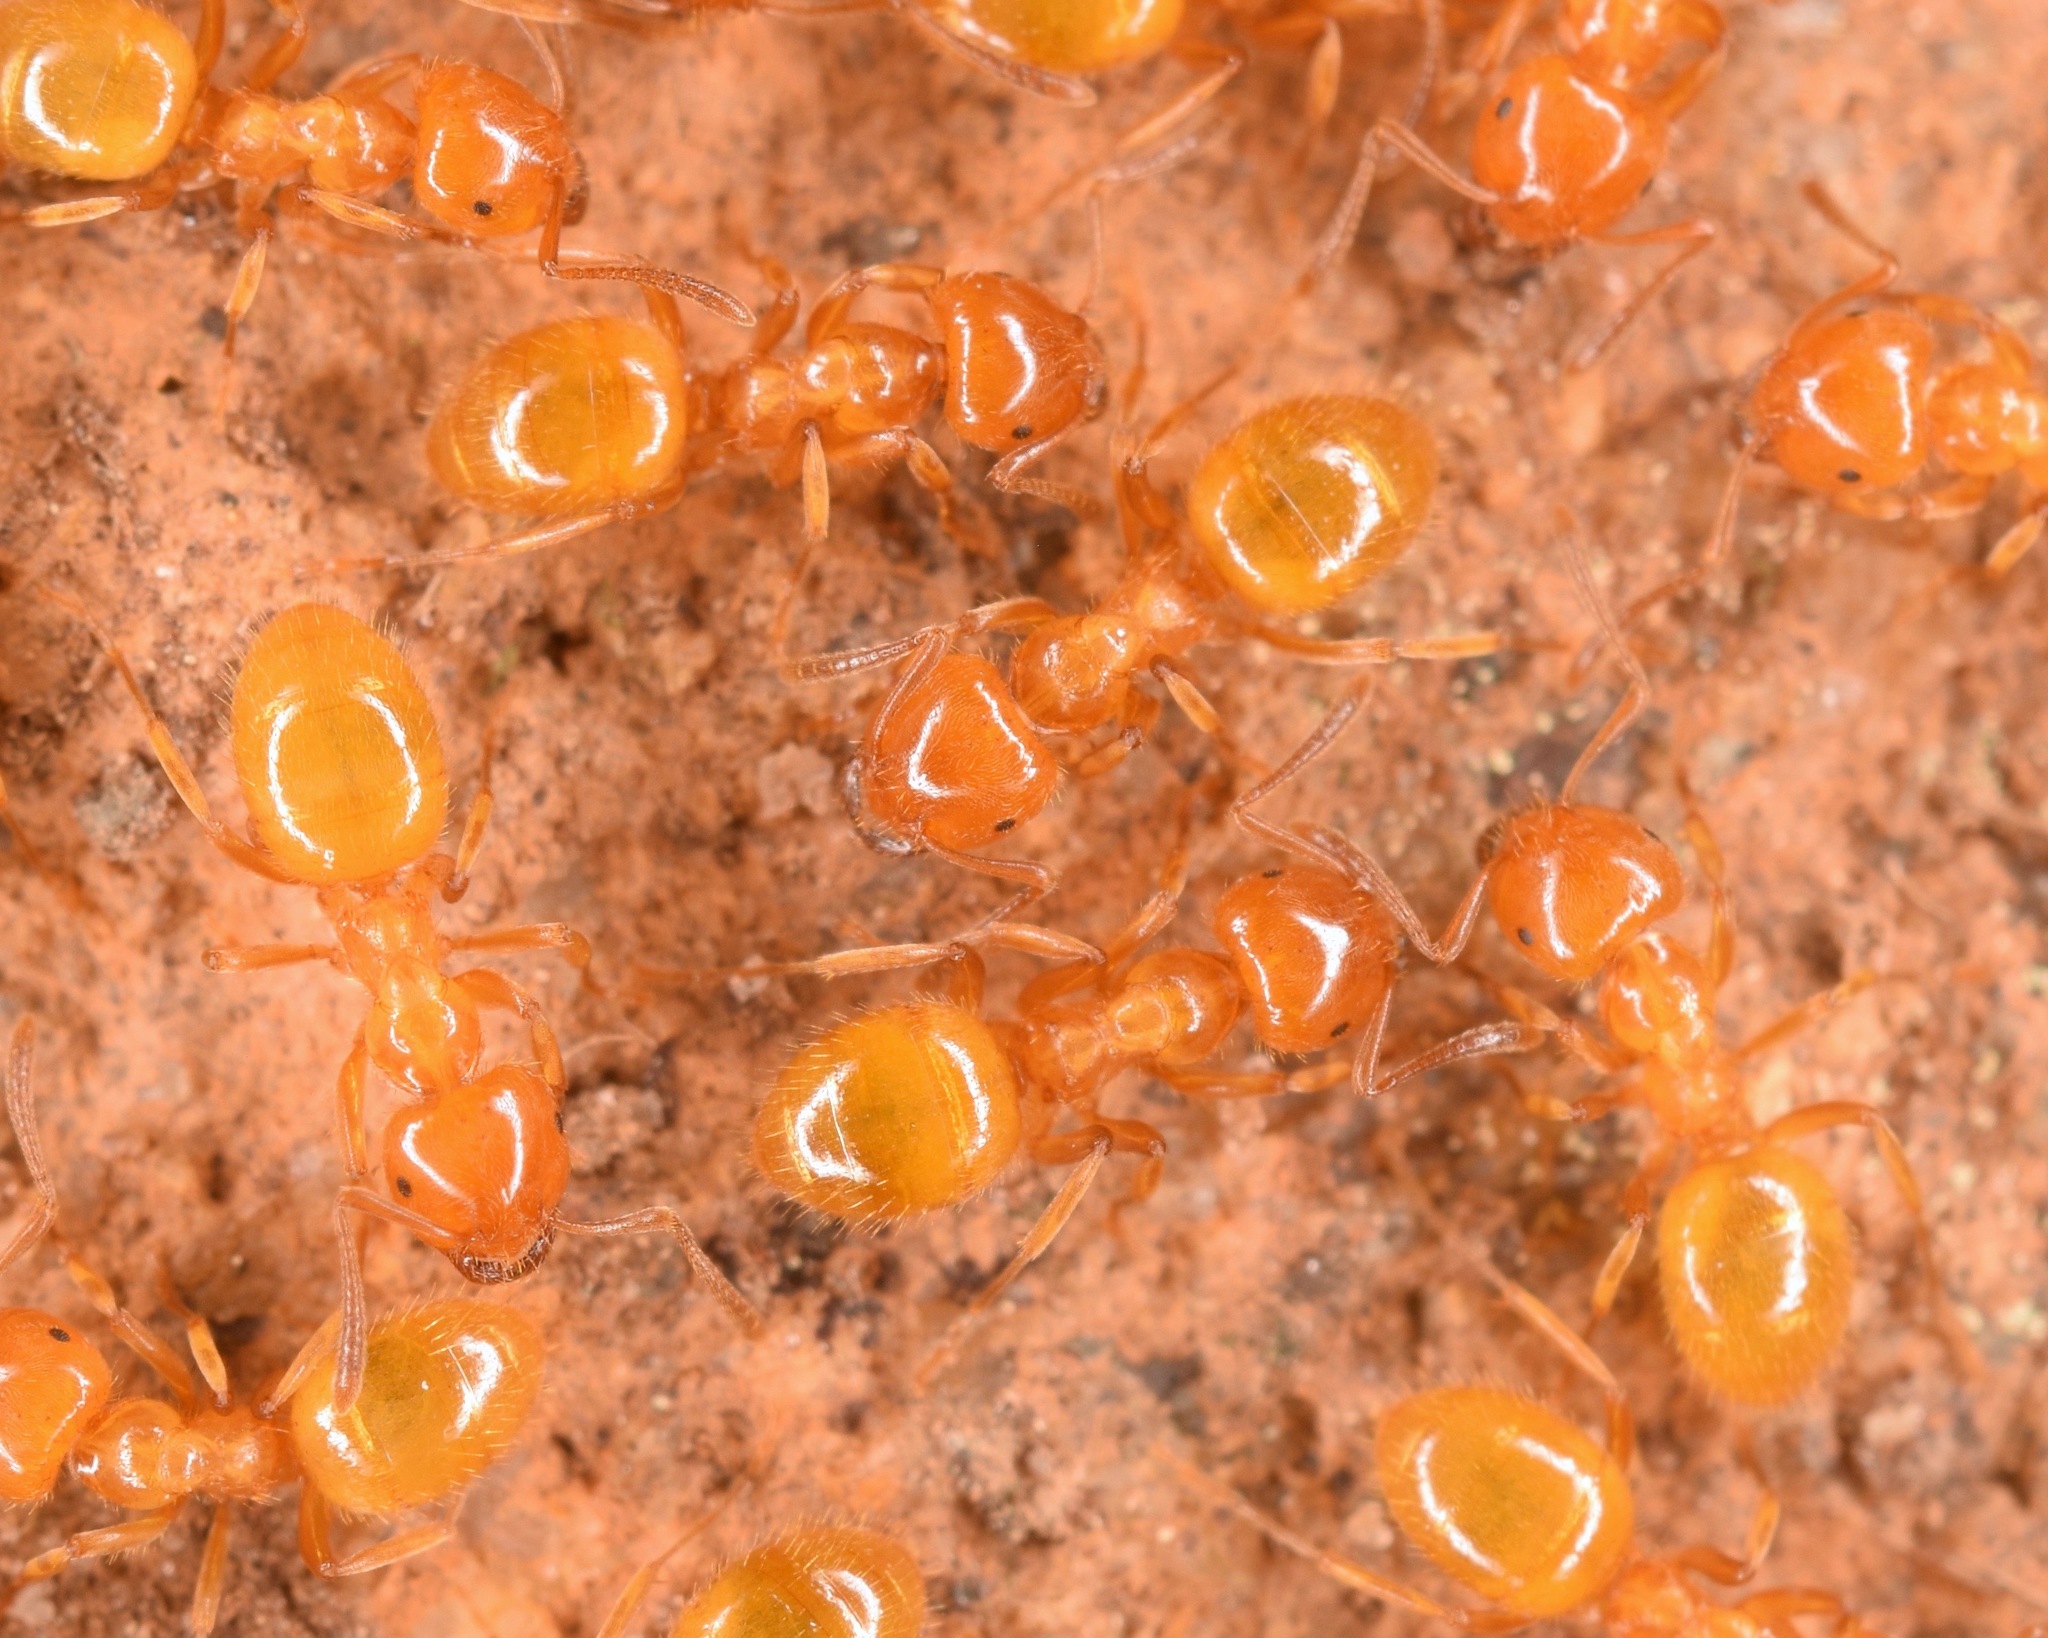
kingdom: Animalia
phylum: Arthropoda
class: Insecta
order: Hymenoptera
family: Formicidae
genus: Lasius
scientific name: Lasius
